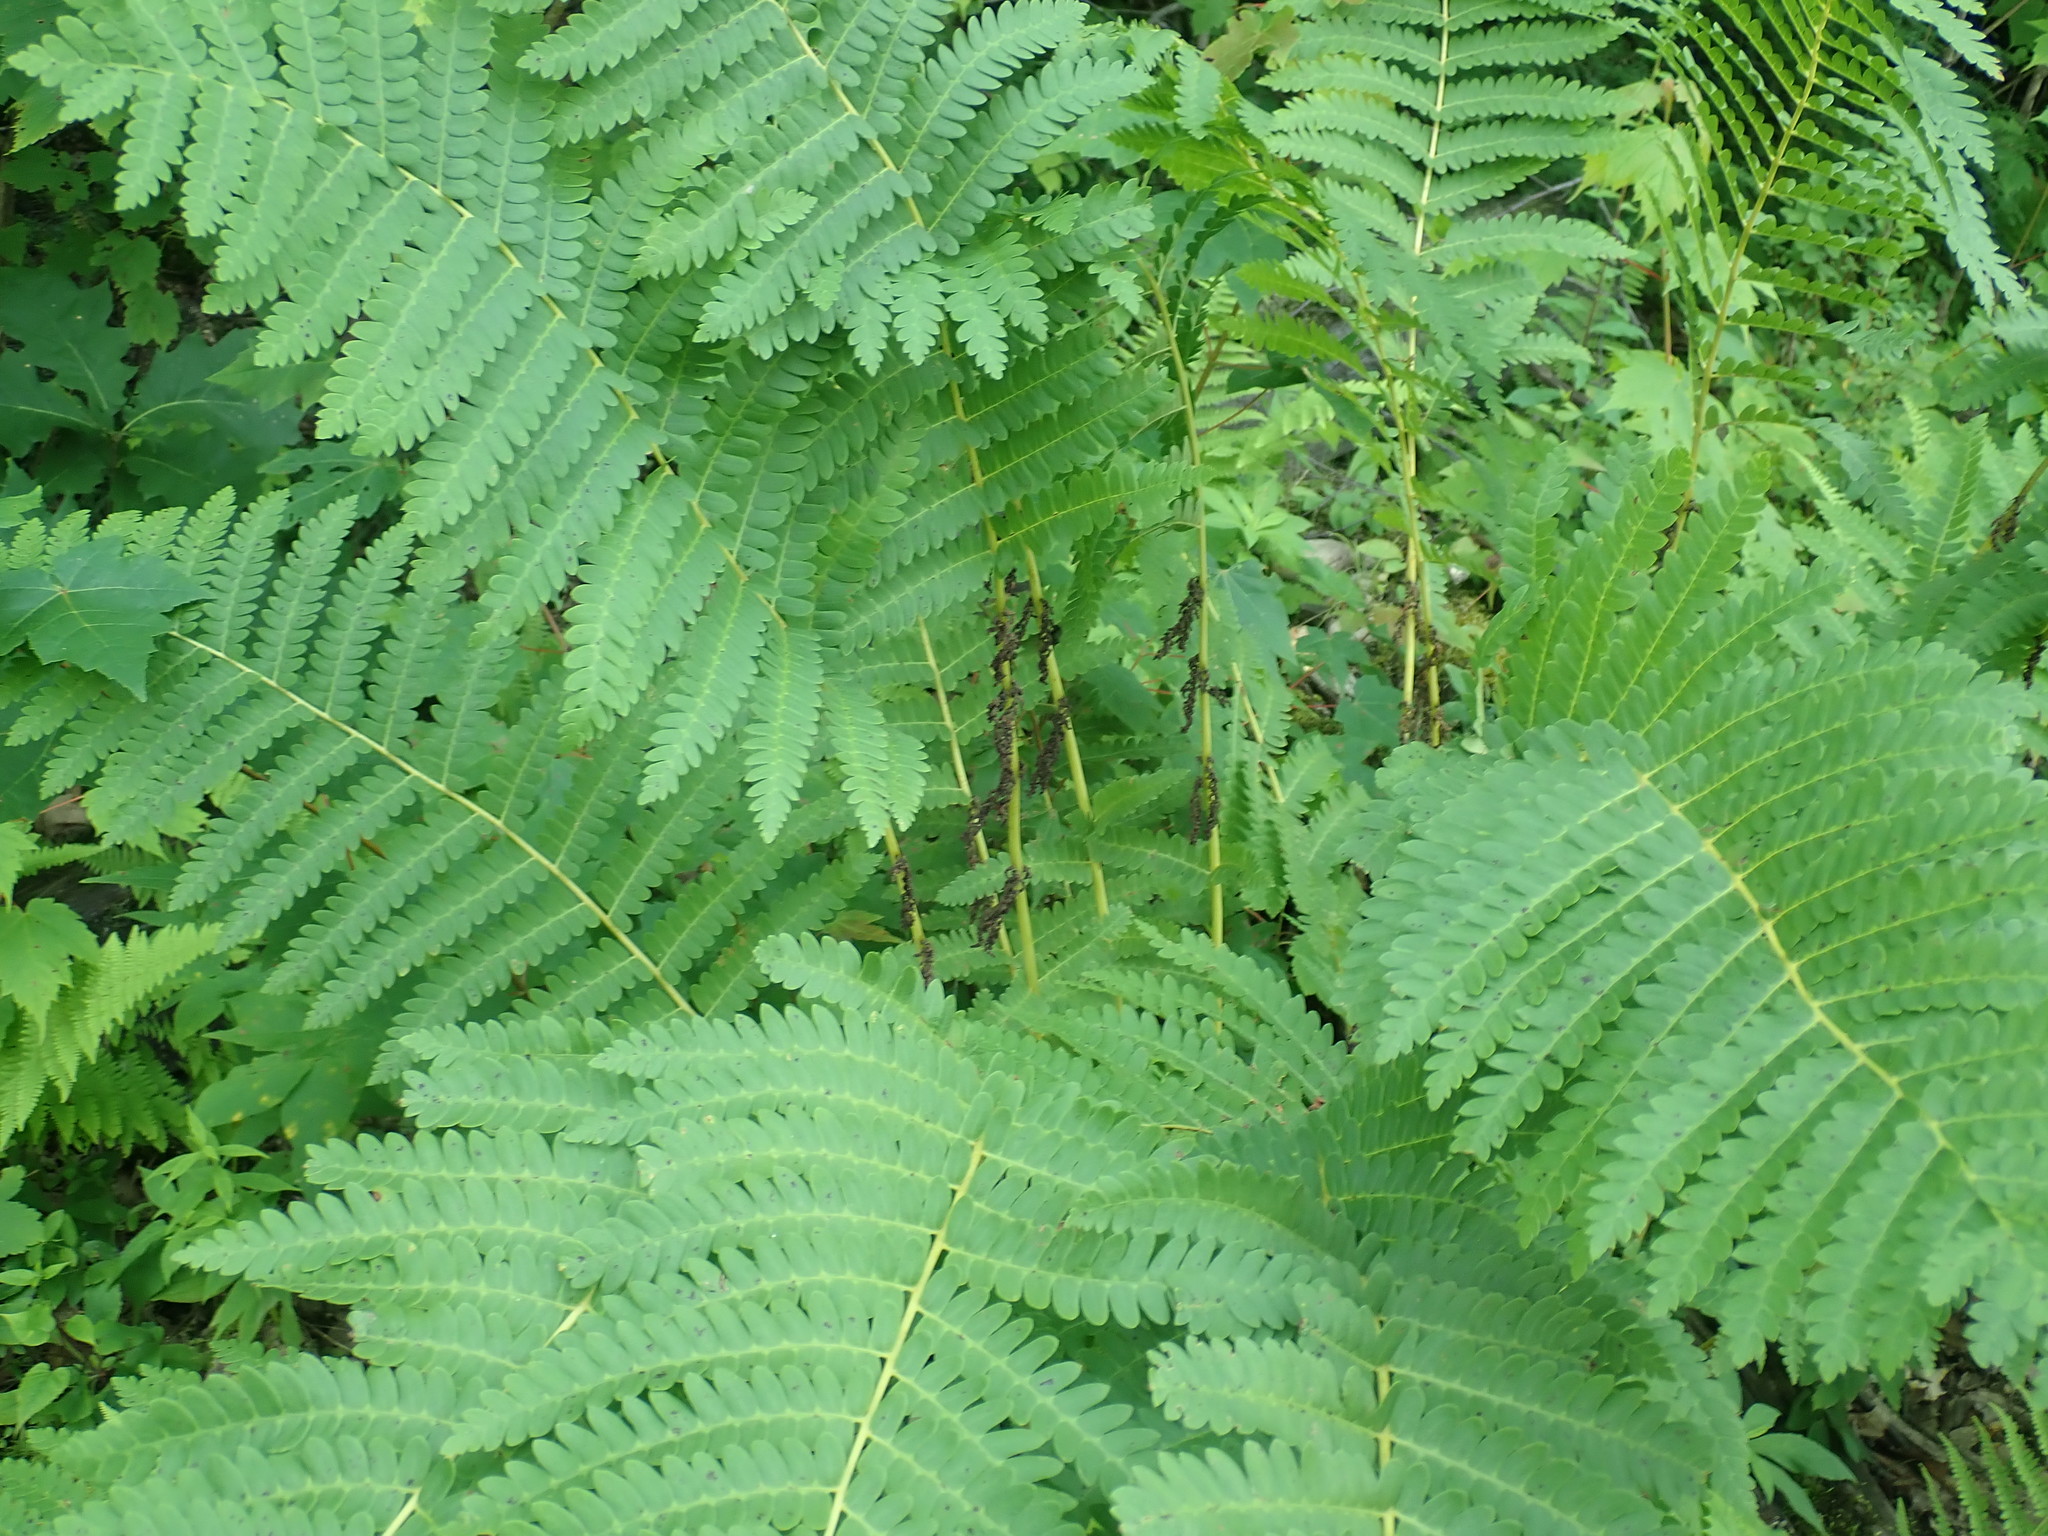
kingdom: Plantae
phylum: Tracheophyta
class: Polypodiopsida
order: Osmundales
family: Osmundaceae
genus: Claytosmunda
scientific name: Claytosmunda claytoniana
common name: Clayton's fern
